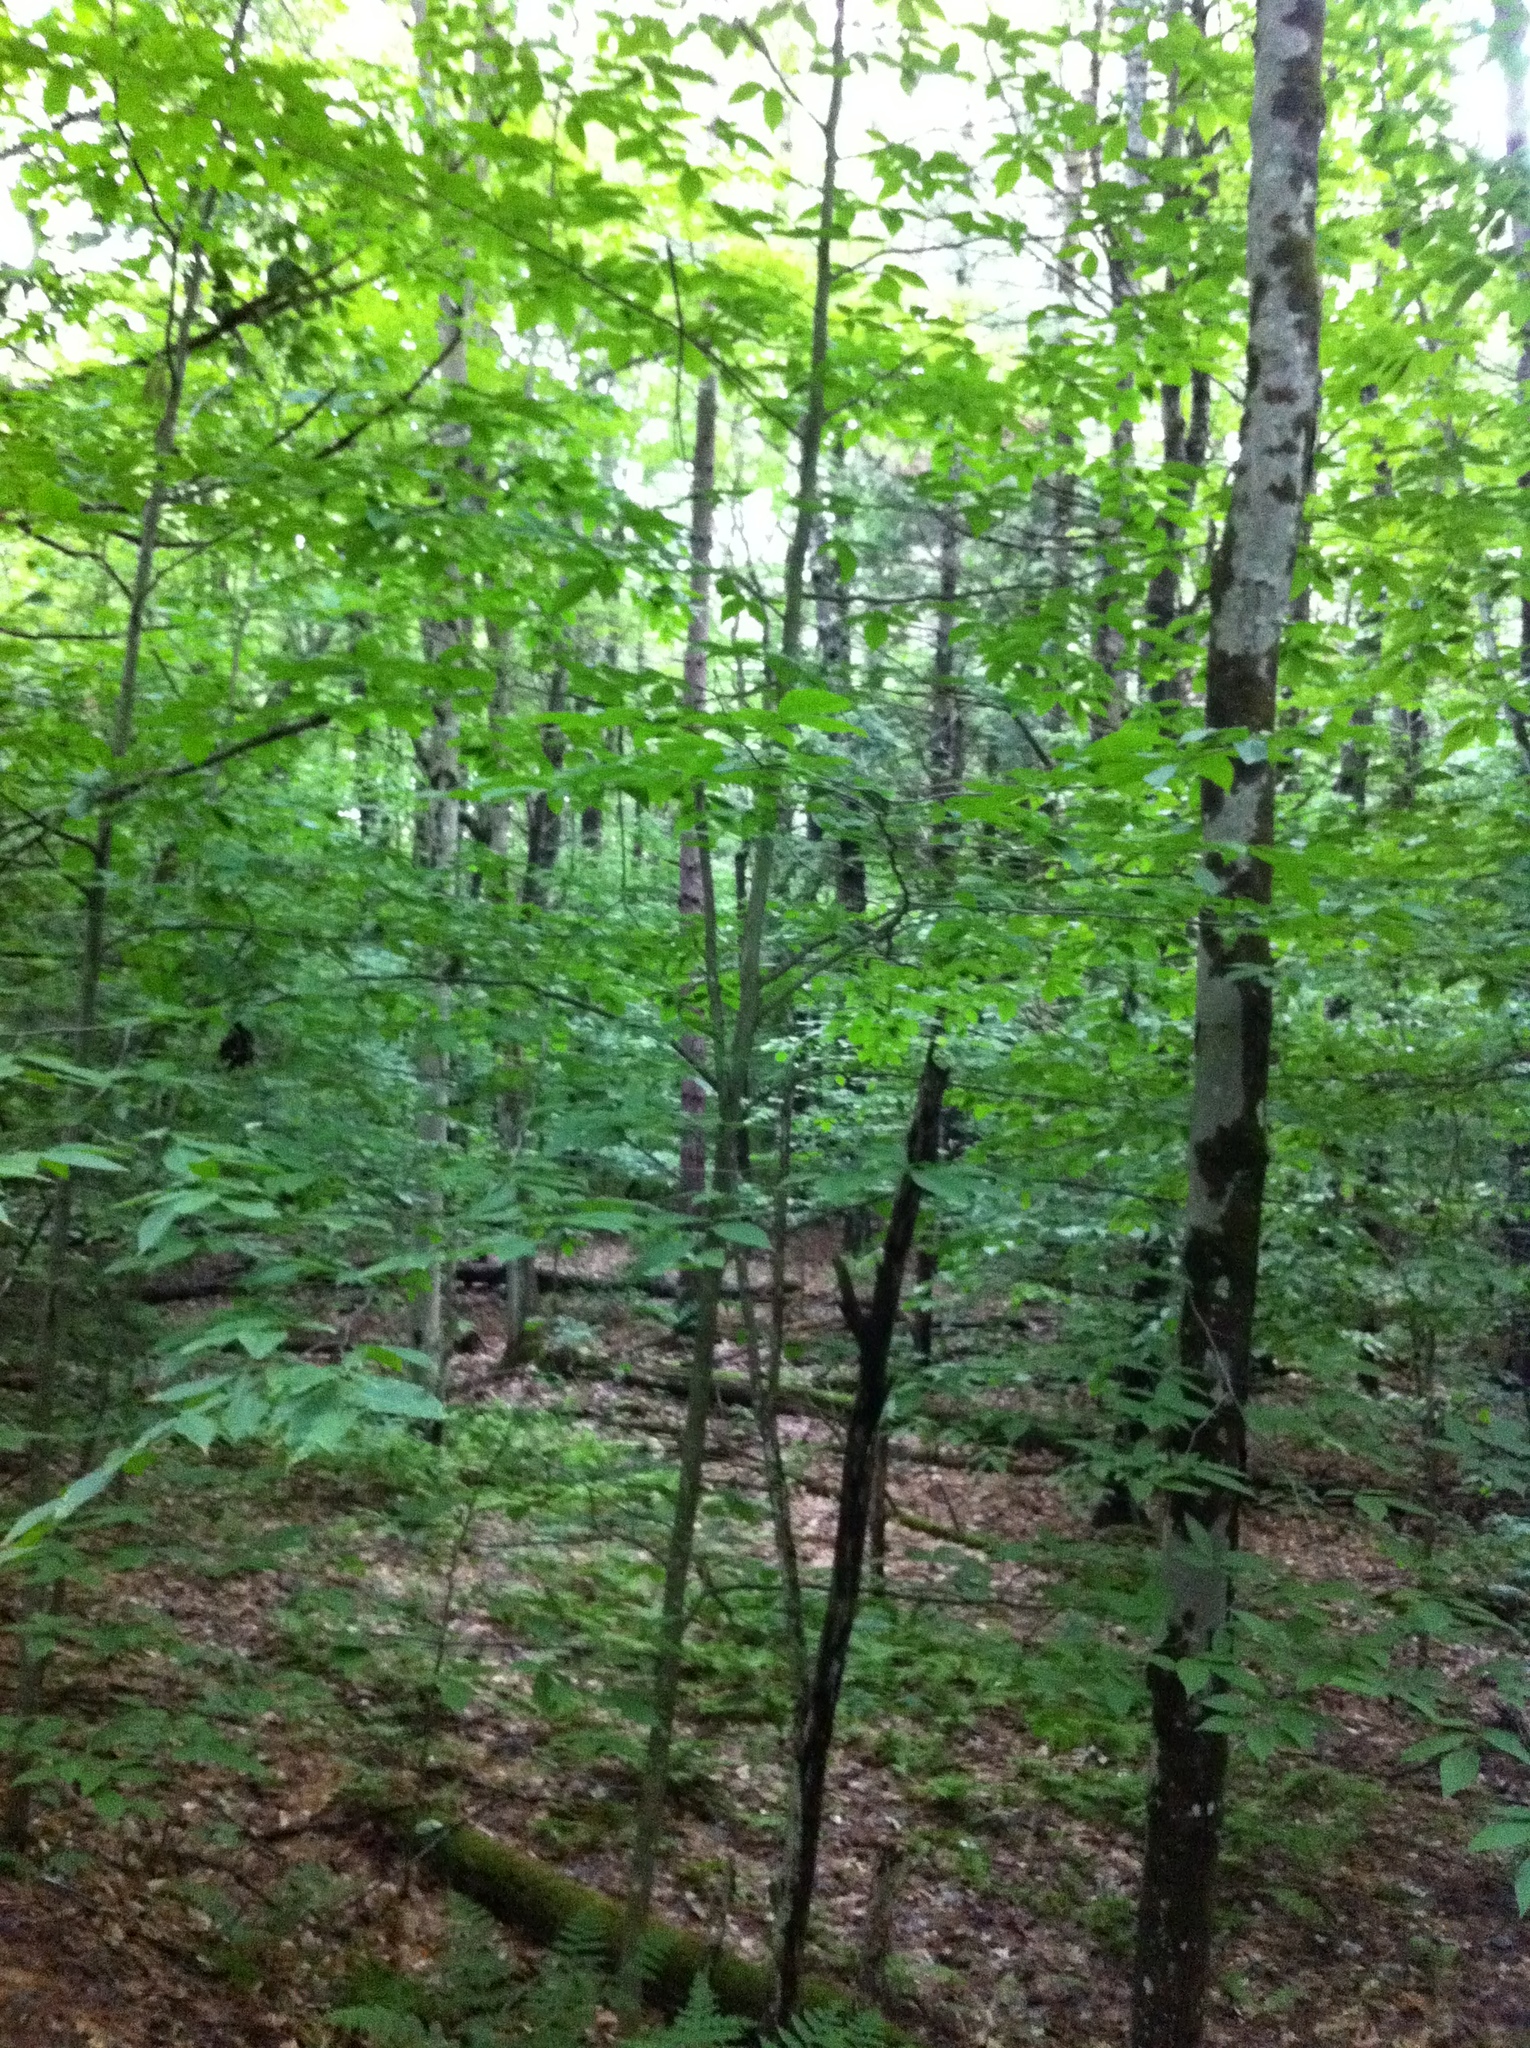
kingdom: Plantae
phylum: Tracheophyta
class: Magnoliopsida
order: Fagales
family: Fagaceae
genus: Fagus
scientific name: Fagus grandifolia
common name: American beech
